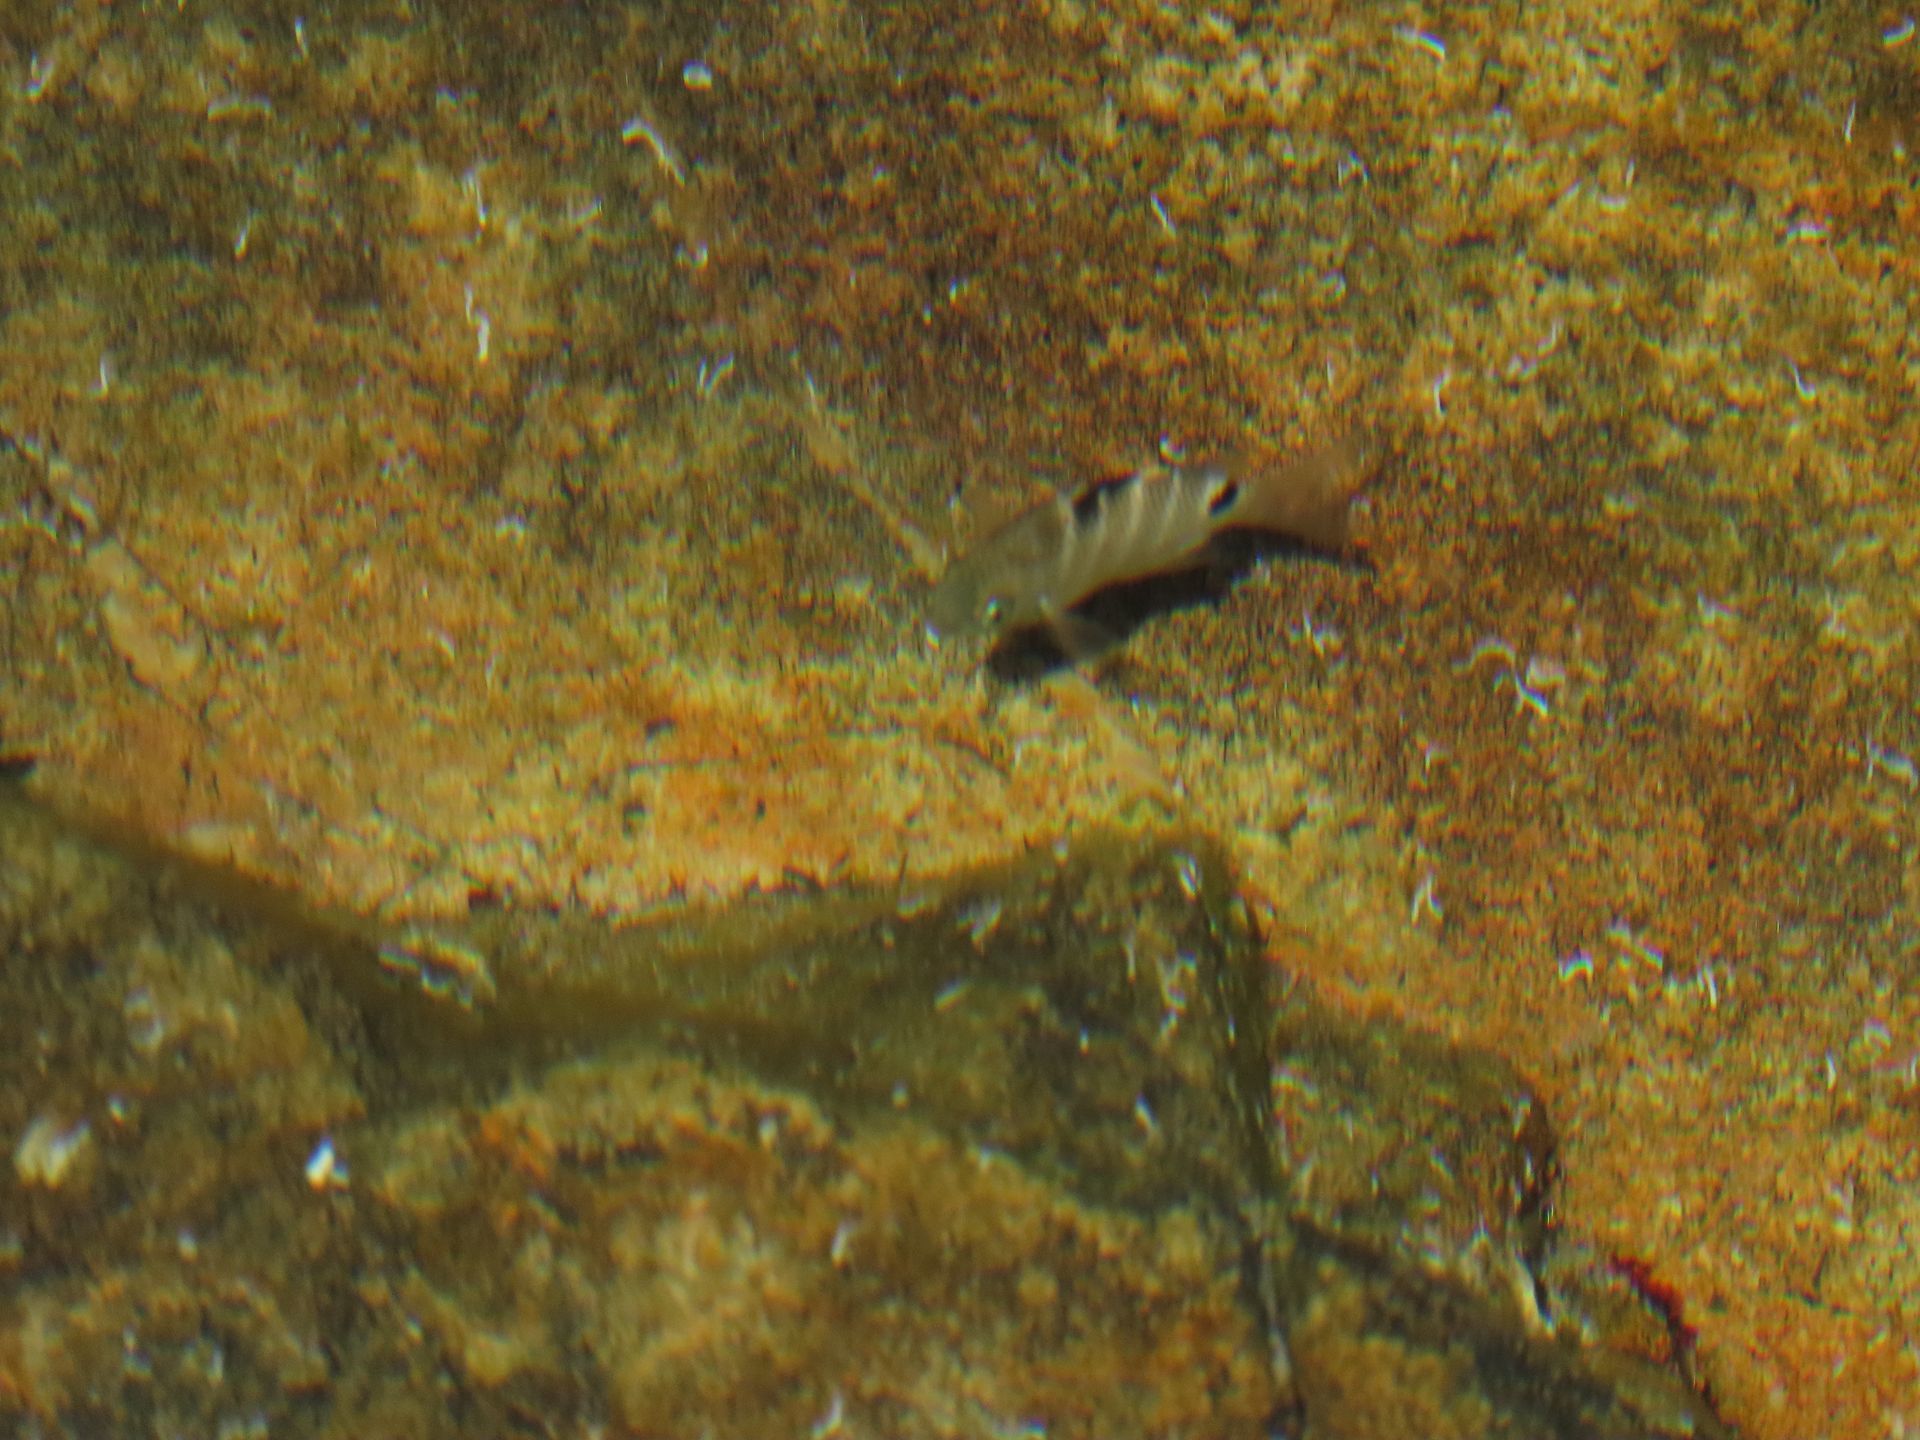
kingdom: Animalia
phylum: Chordata
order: Perciformes
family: Pomacentridae
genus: Abudefduf
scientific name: Abudefduf sordidus
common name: Blackspot sergeant
